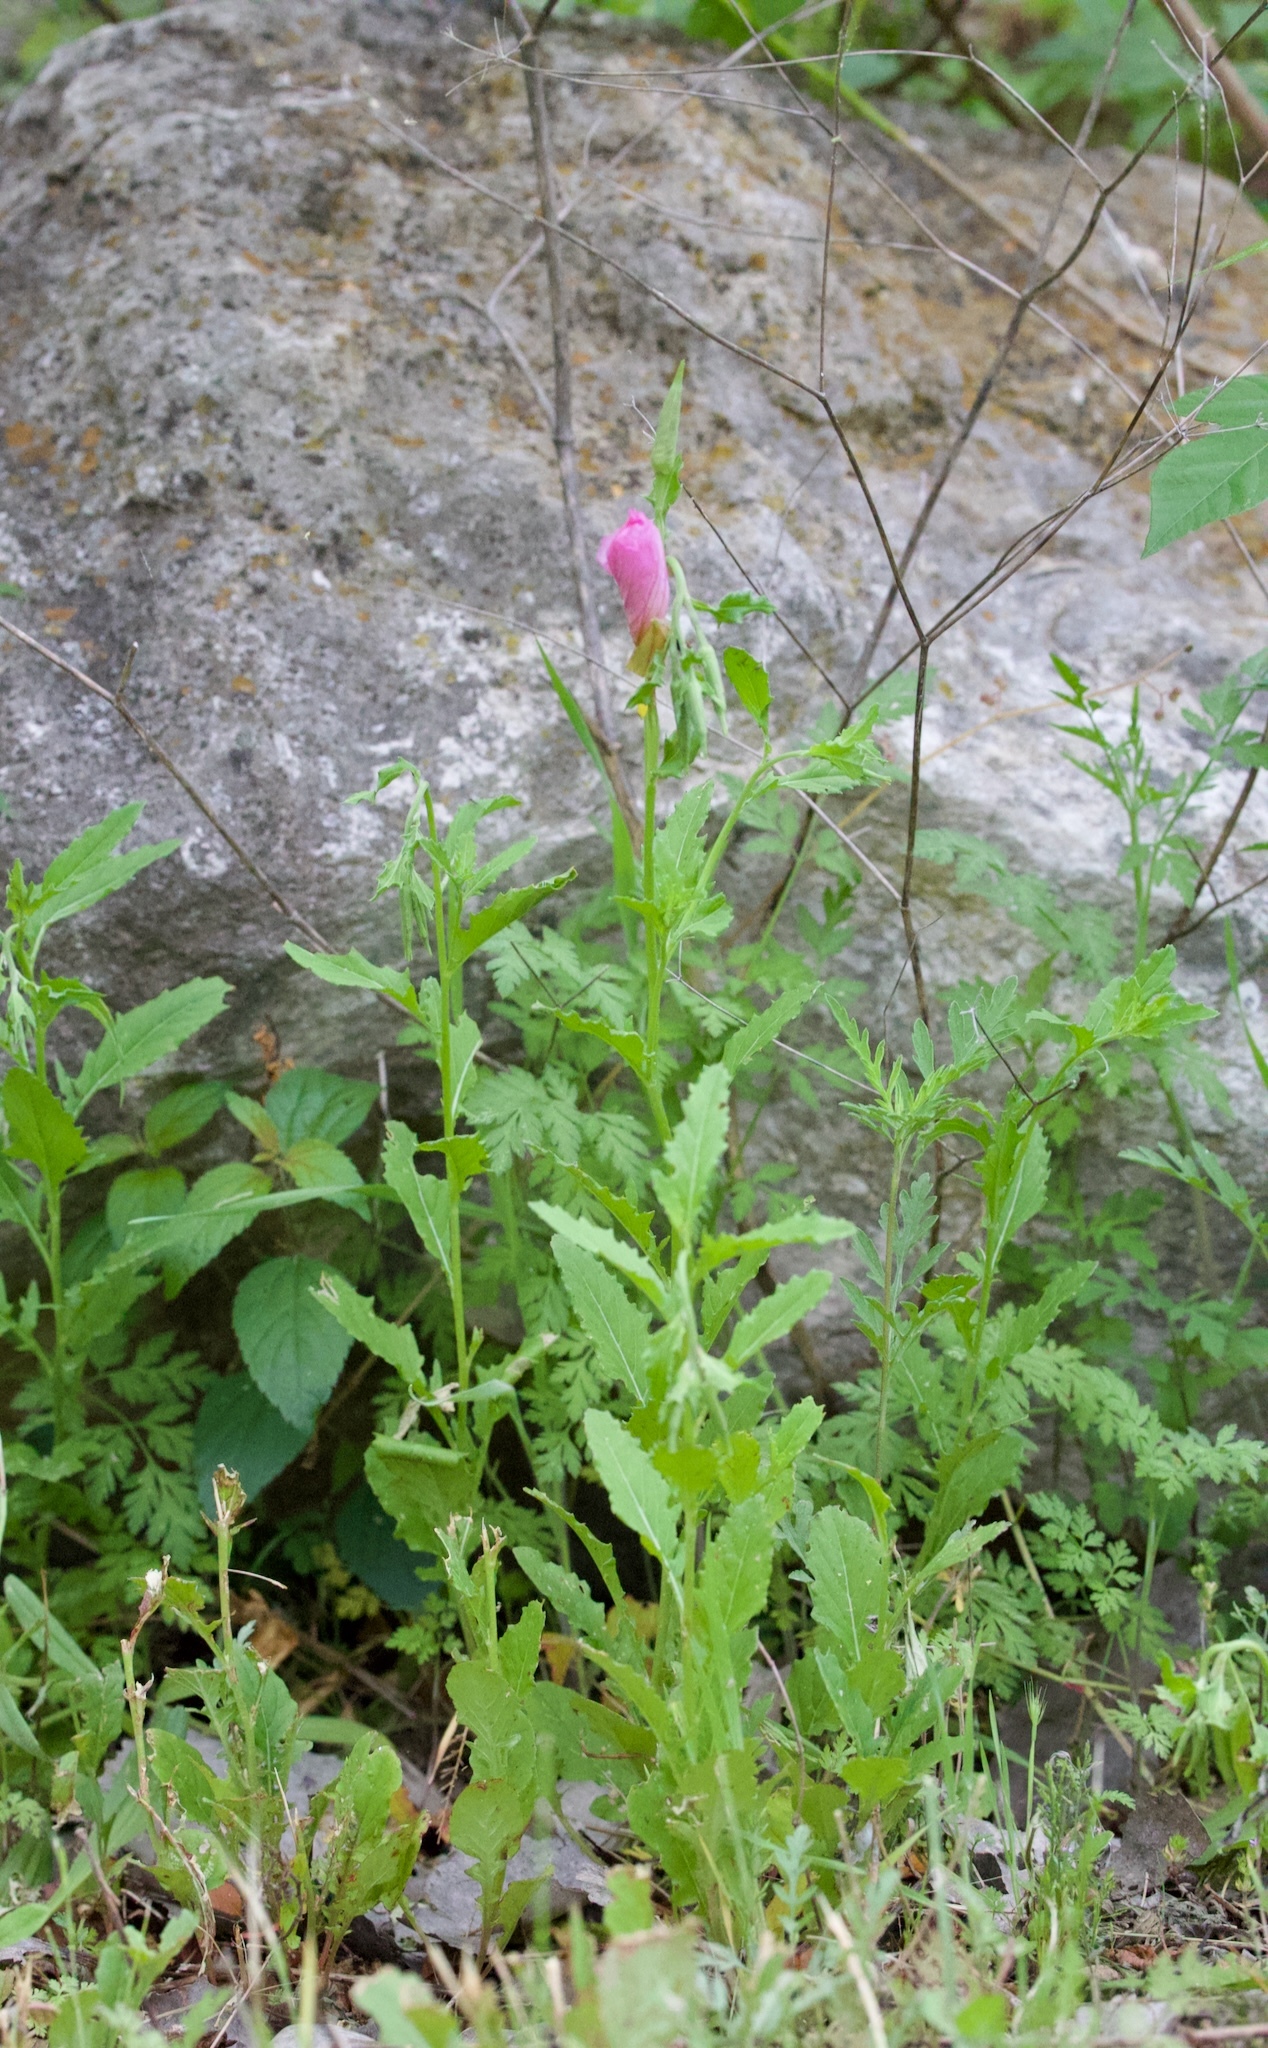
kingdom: Plantae
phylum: Tracheophyta
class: Magnoliopsida
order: Myrtales
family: Onagraceae
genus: Oenothera
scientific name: Oenothera speciosa
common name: White evening-primrose
